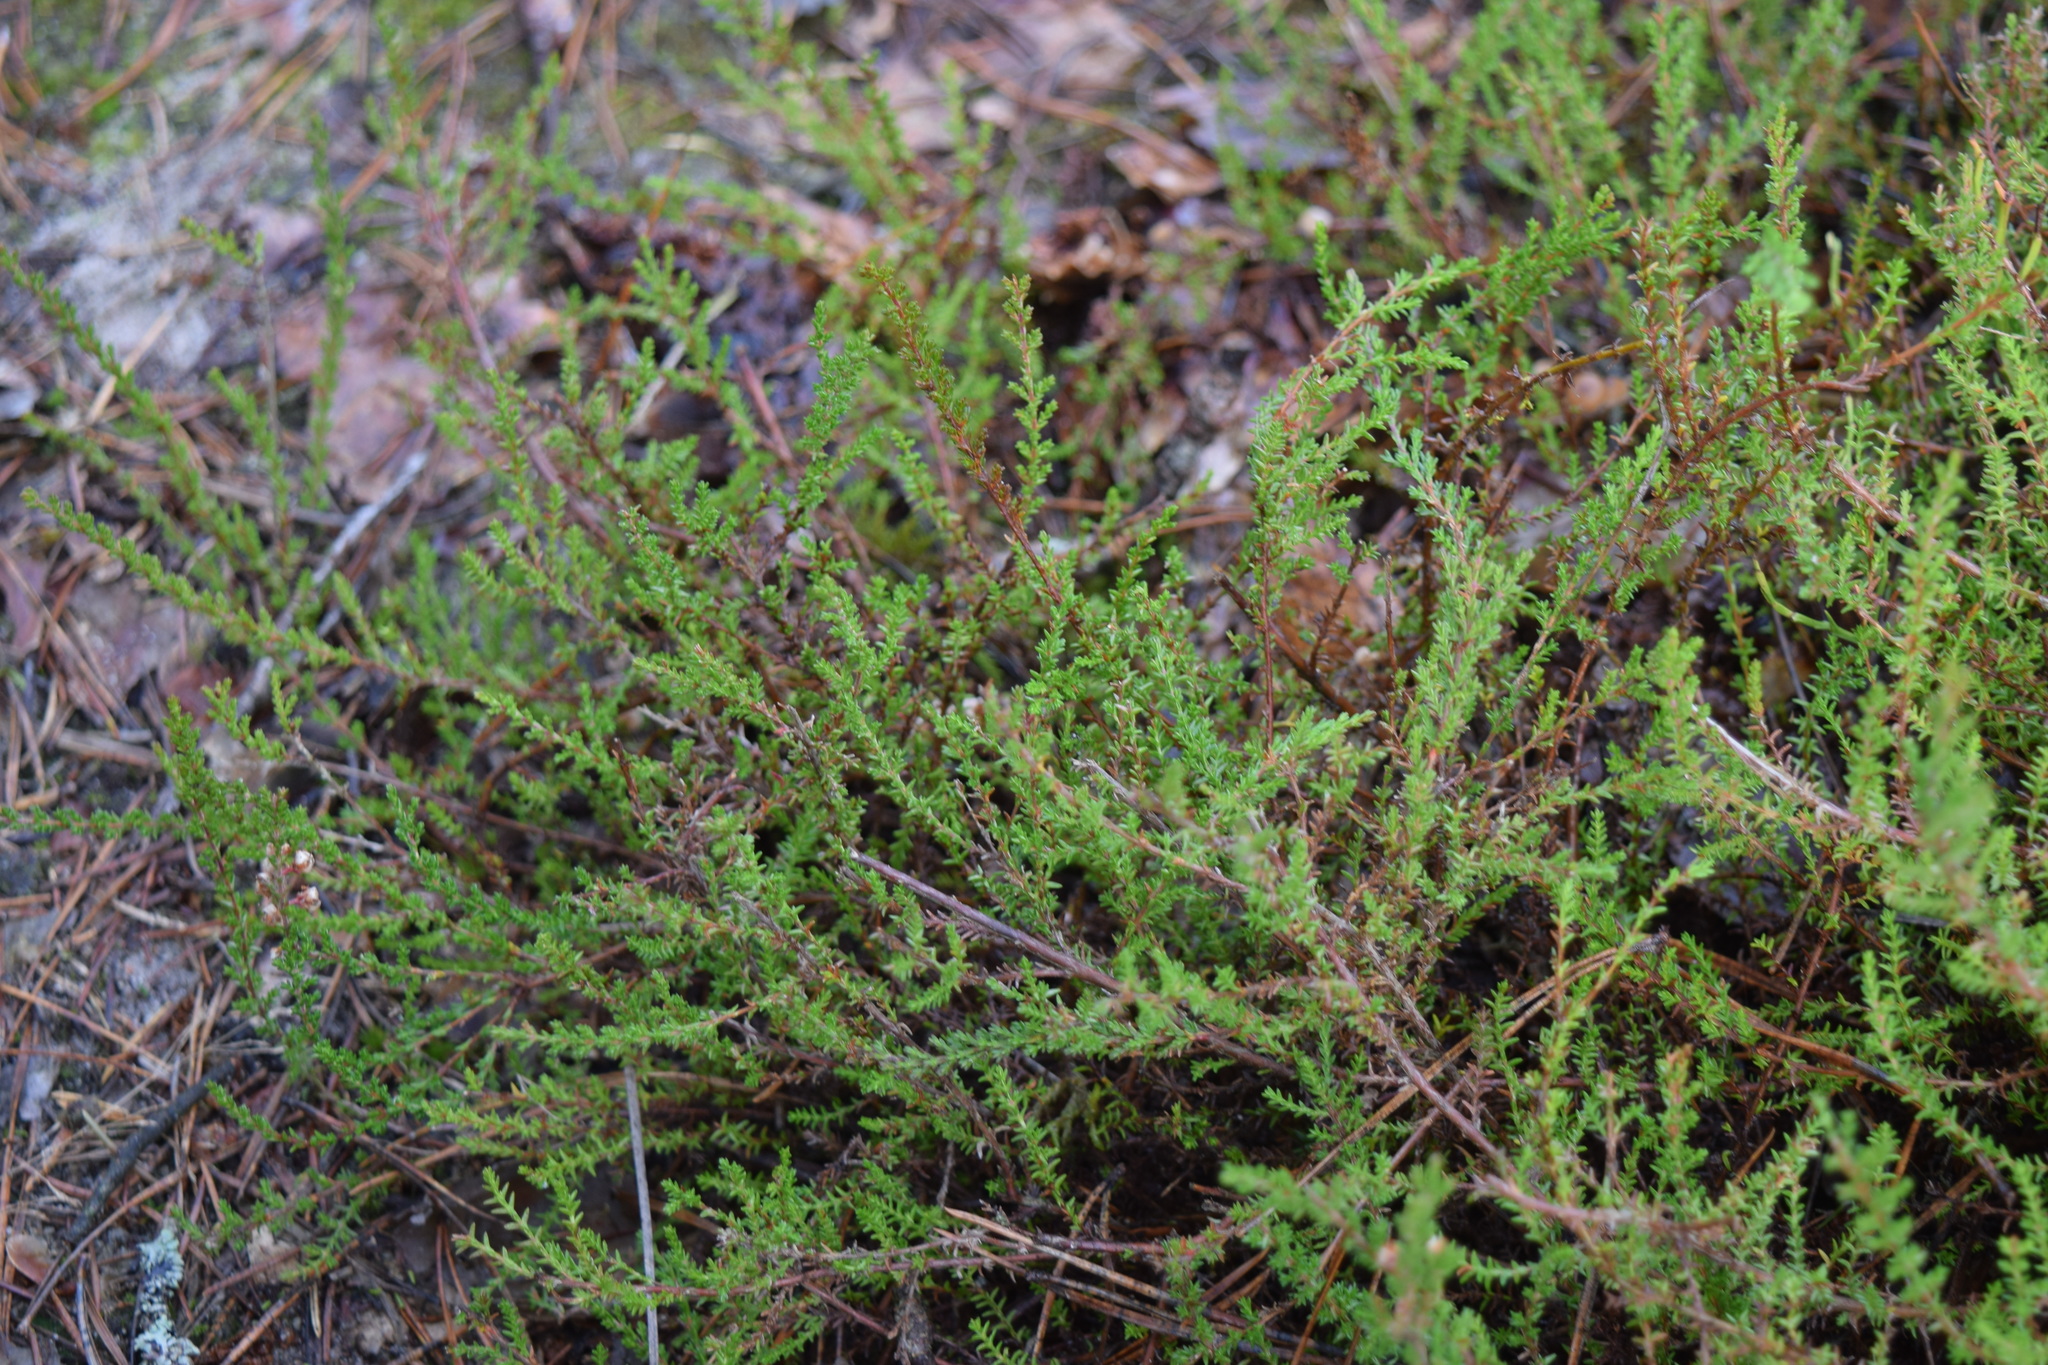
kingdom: Plantae
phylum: Tracheophyta
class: Magnoliopsida
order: Ericales
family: Ericaceae
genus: Calluna
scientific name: Calluna vulgaris
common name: Heather
